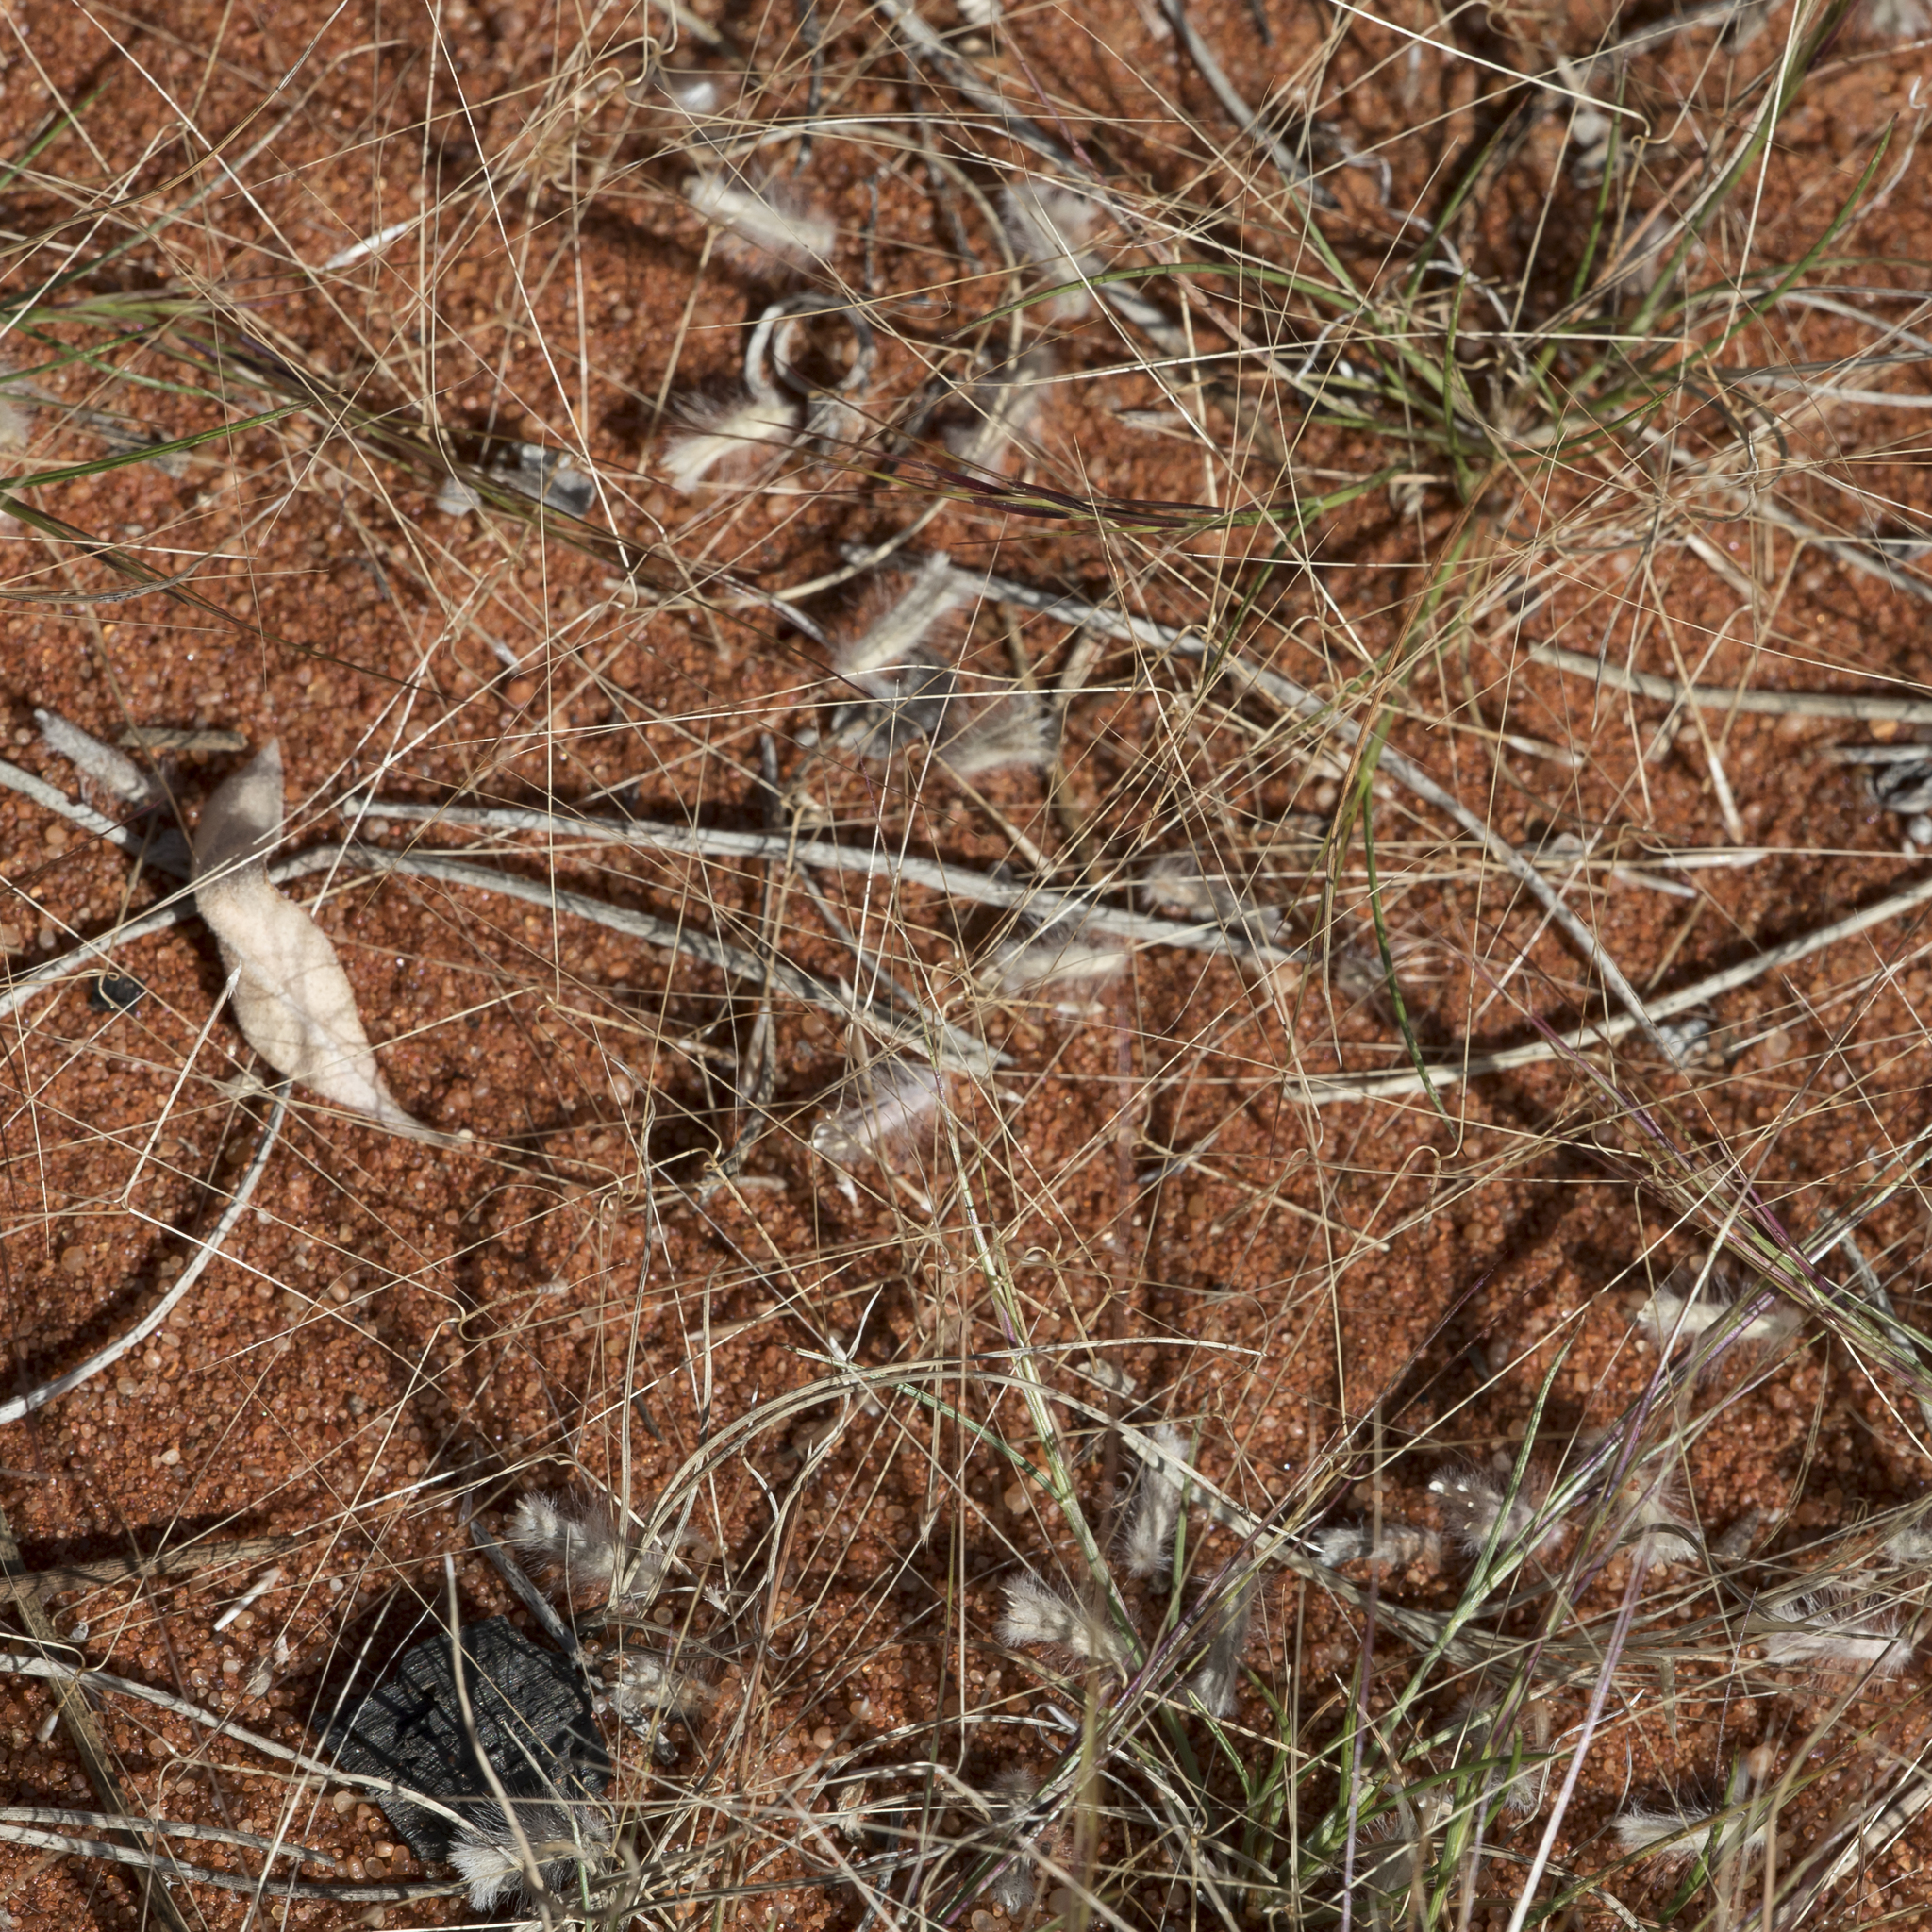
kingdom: Plantae
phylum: Tracheophyta
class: Liliopsida
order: Poales
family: Poaceae
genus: Aristida
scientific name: Aristida contorta
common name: Bunch kerosene grass
